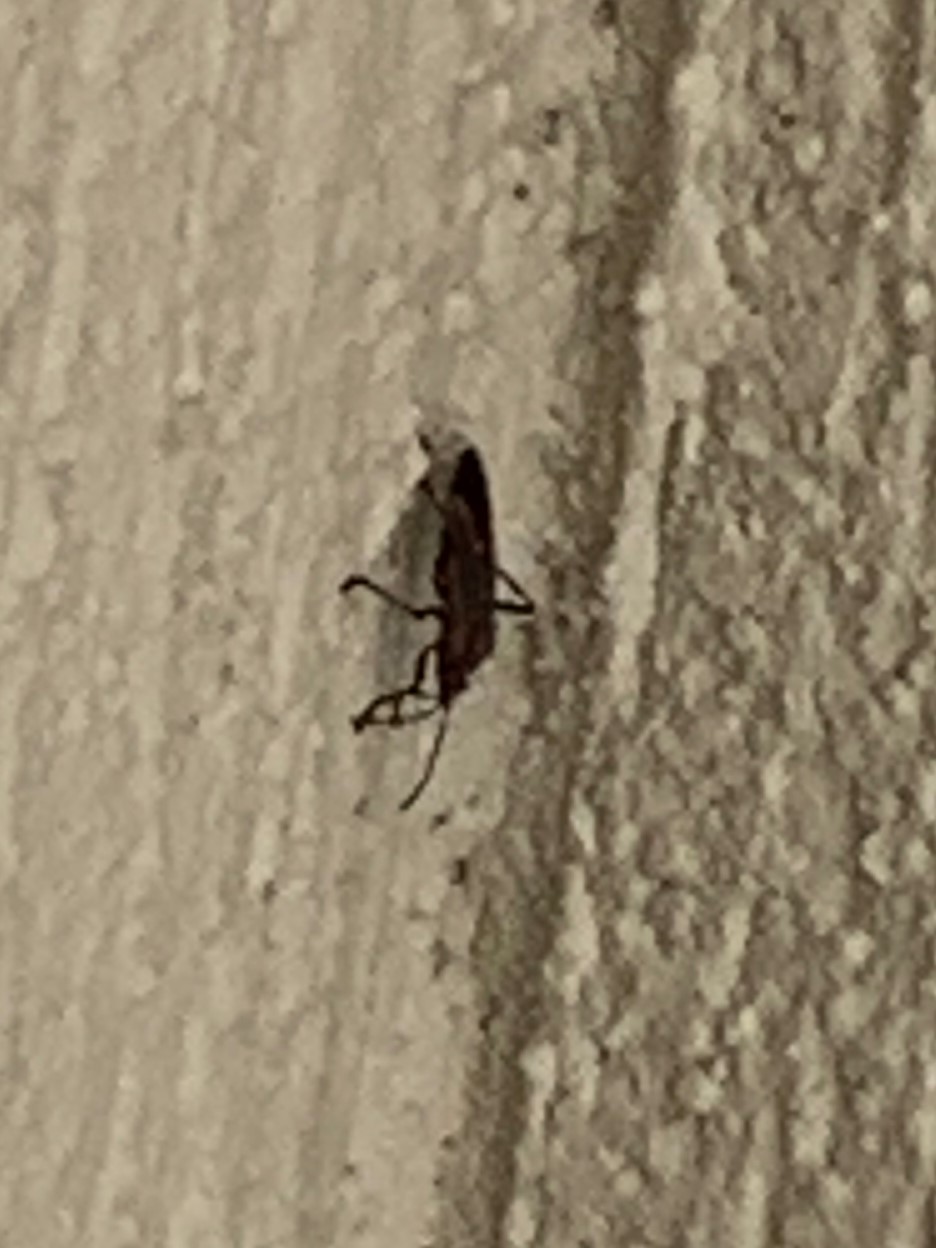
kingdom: Animalia
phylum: Arthropoda
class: Insecta
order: Hemiptera
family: Rhopalidae
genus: Boisea
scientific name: Boisea trivittata
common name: Boxelder bug
